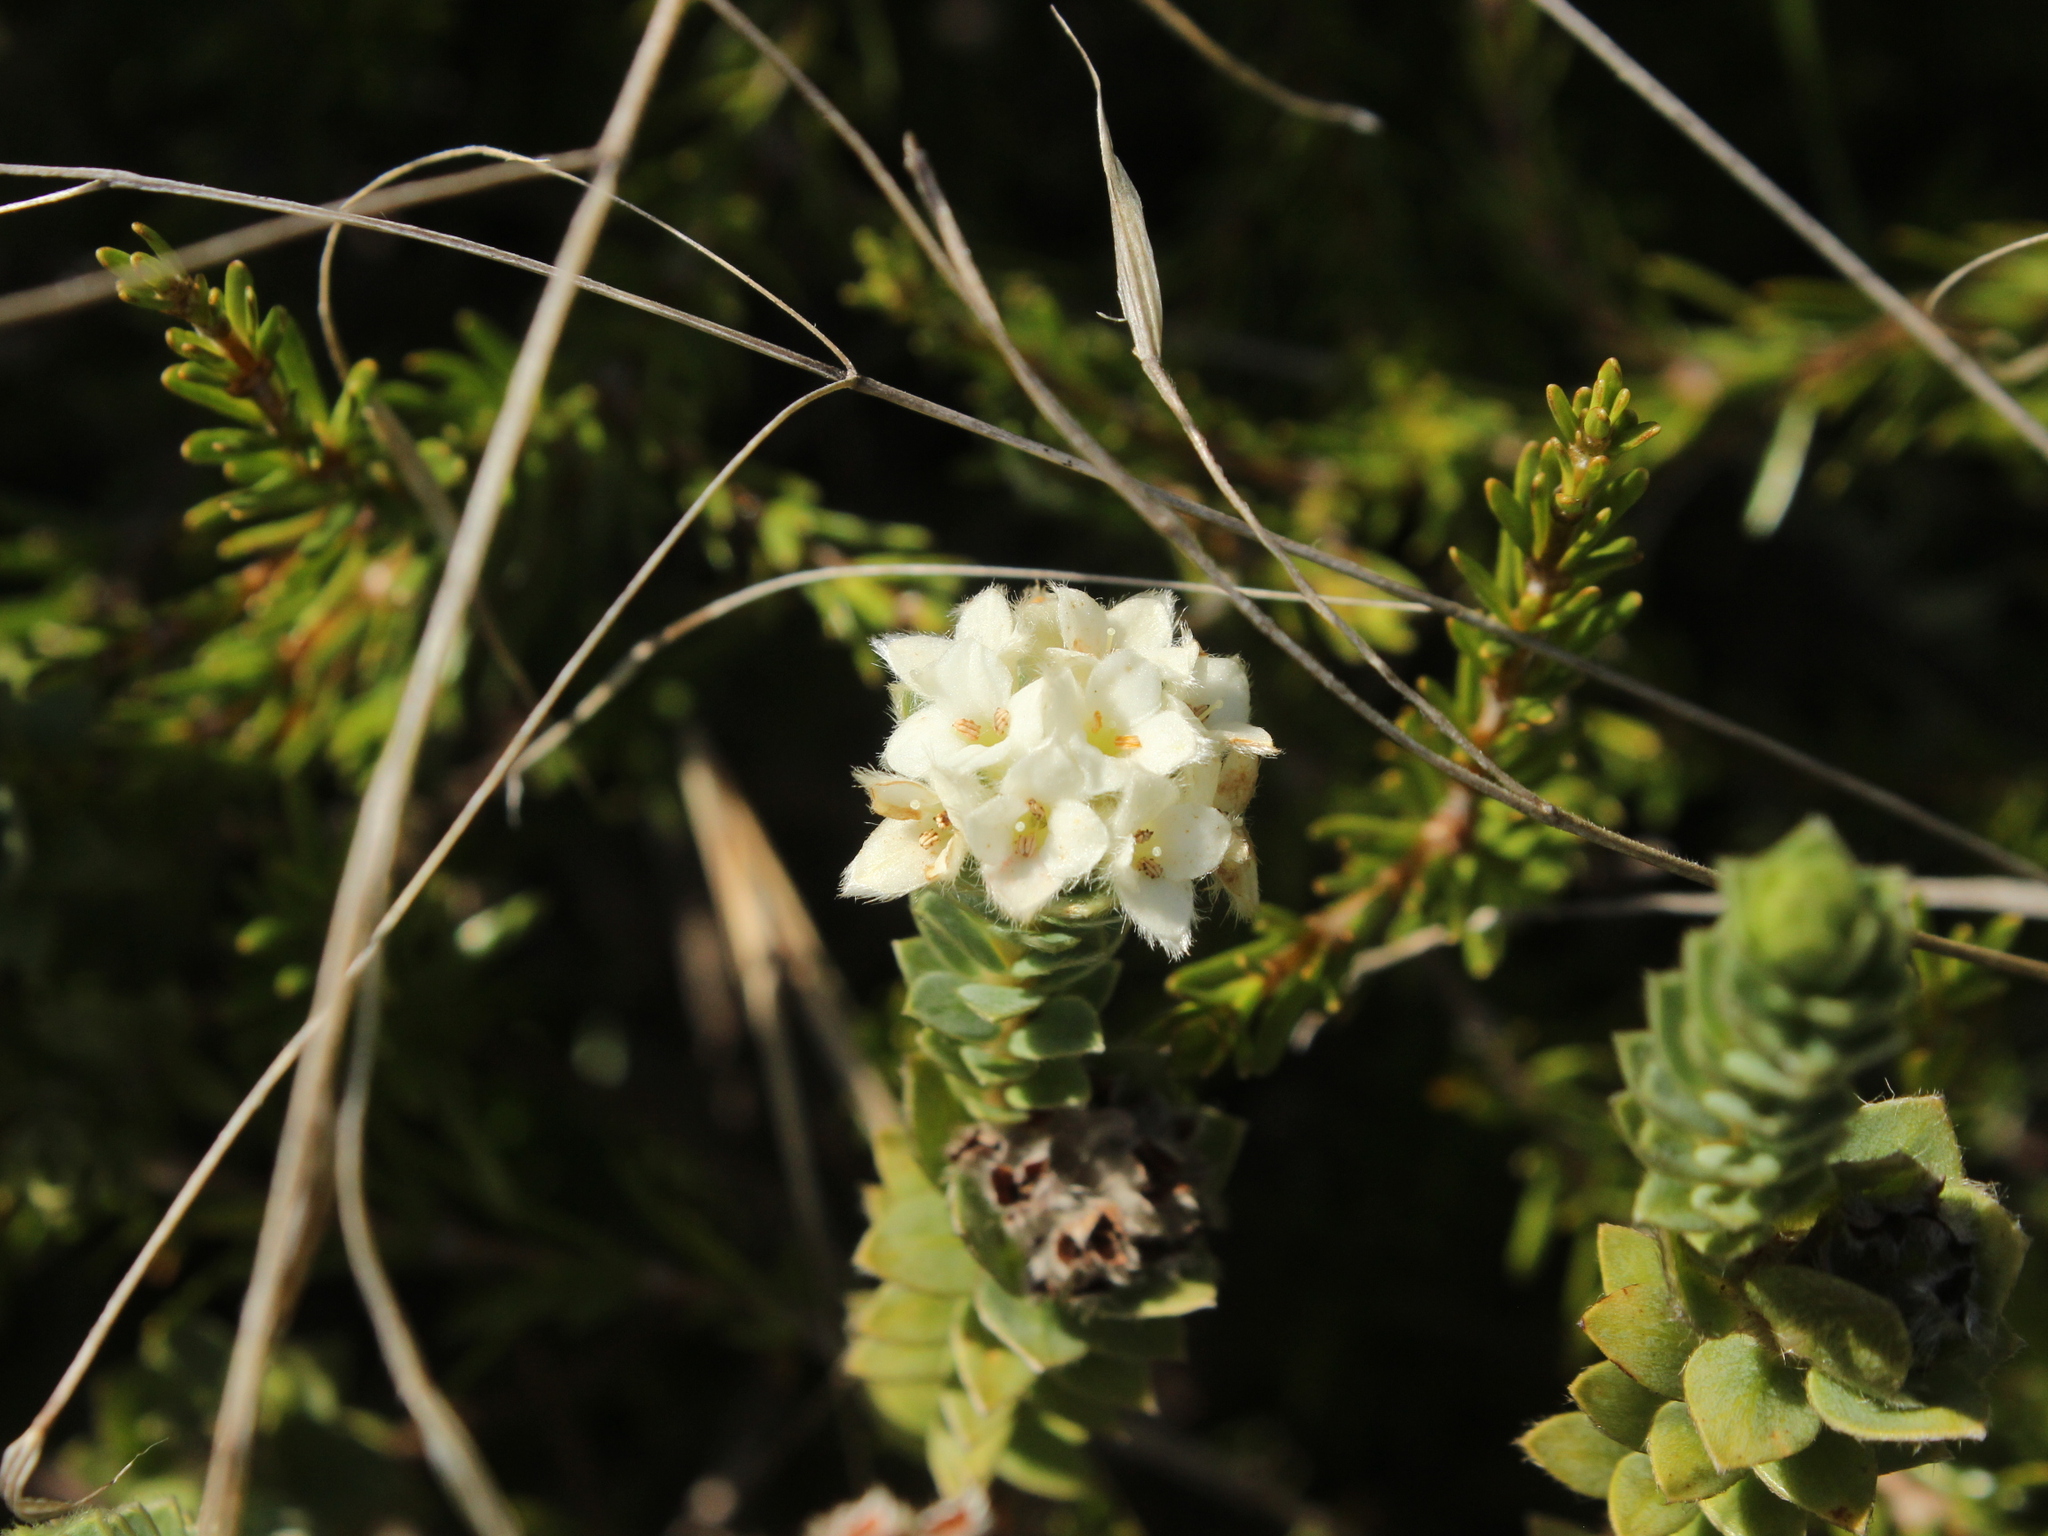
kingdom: Plantae
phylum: Tracheophyta
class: Magnoliopsida
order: Malvales
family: Thymelaeaceae
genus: Pimelea
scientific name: Pimelea villosa
